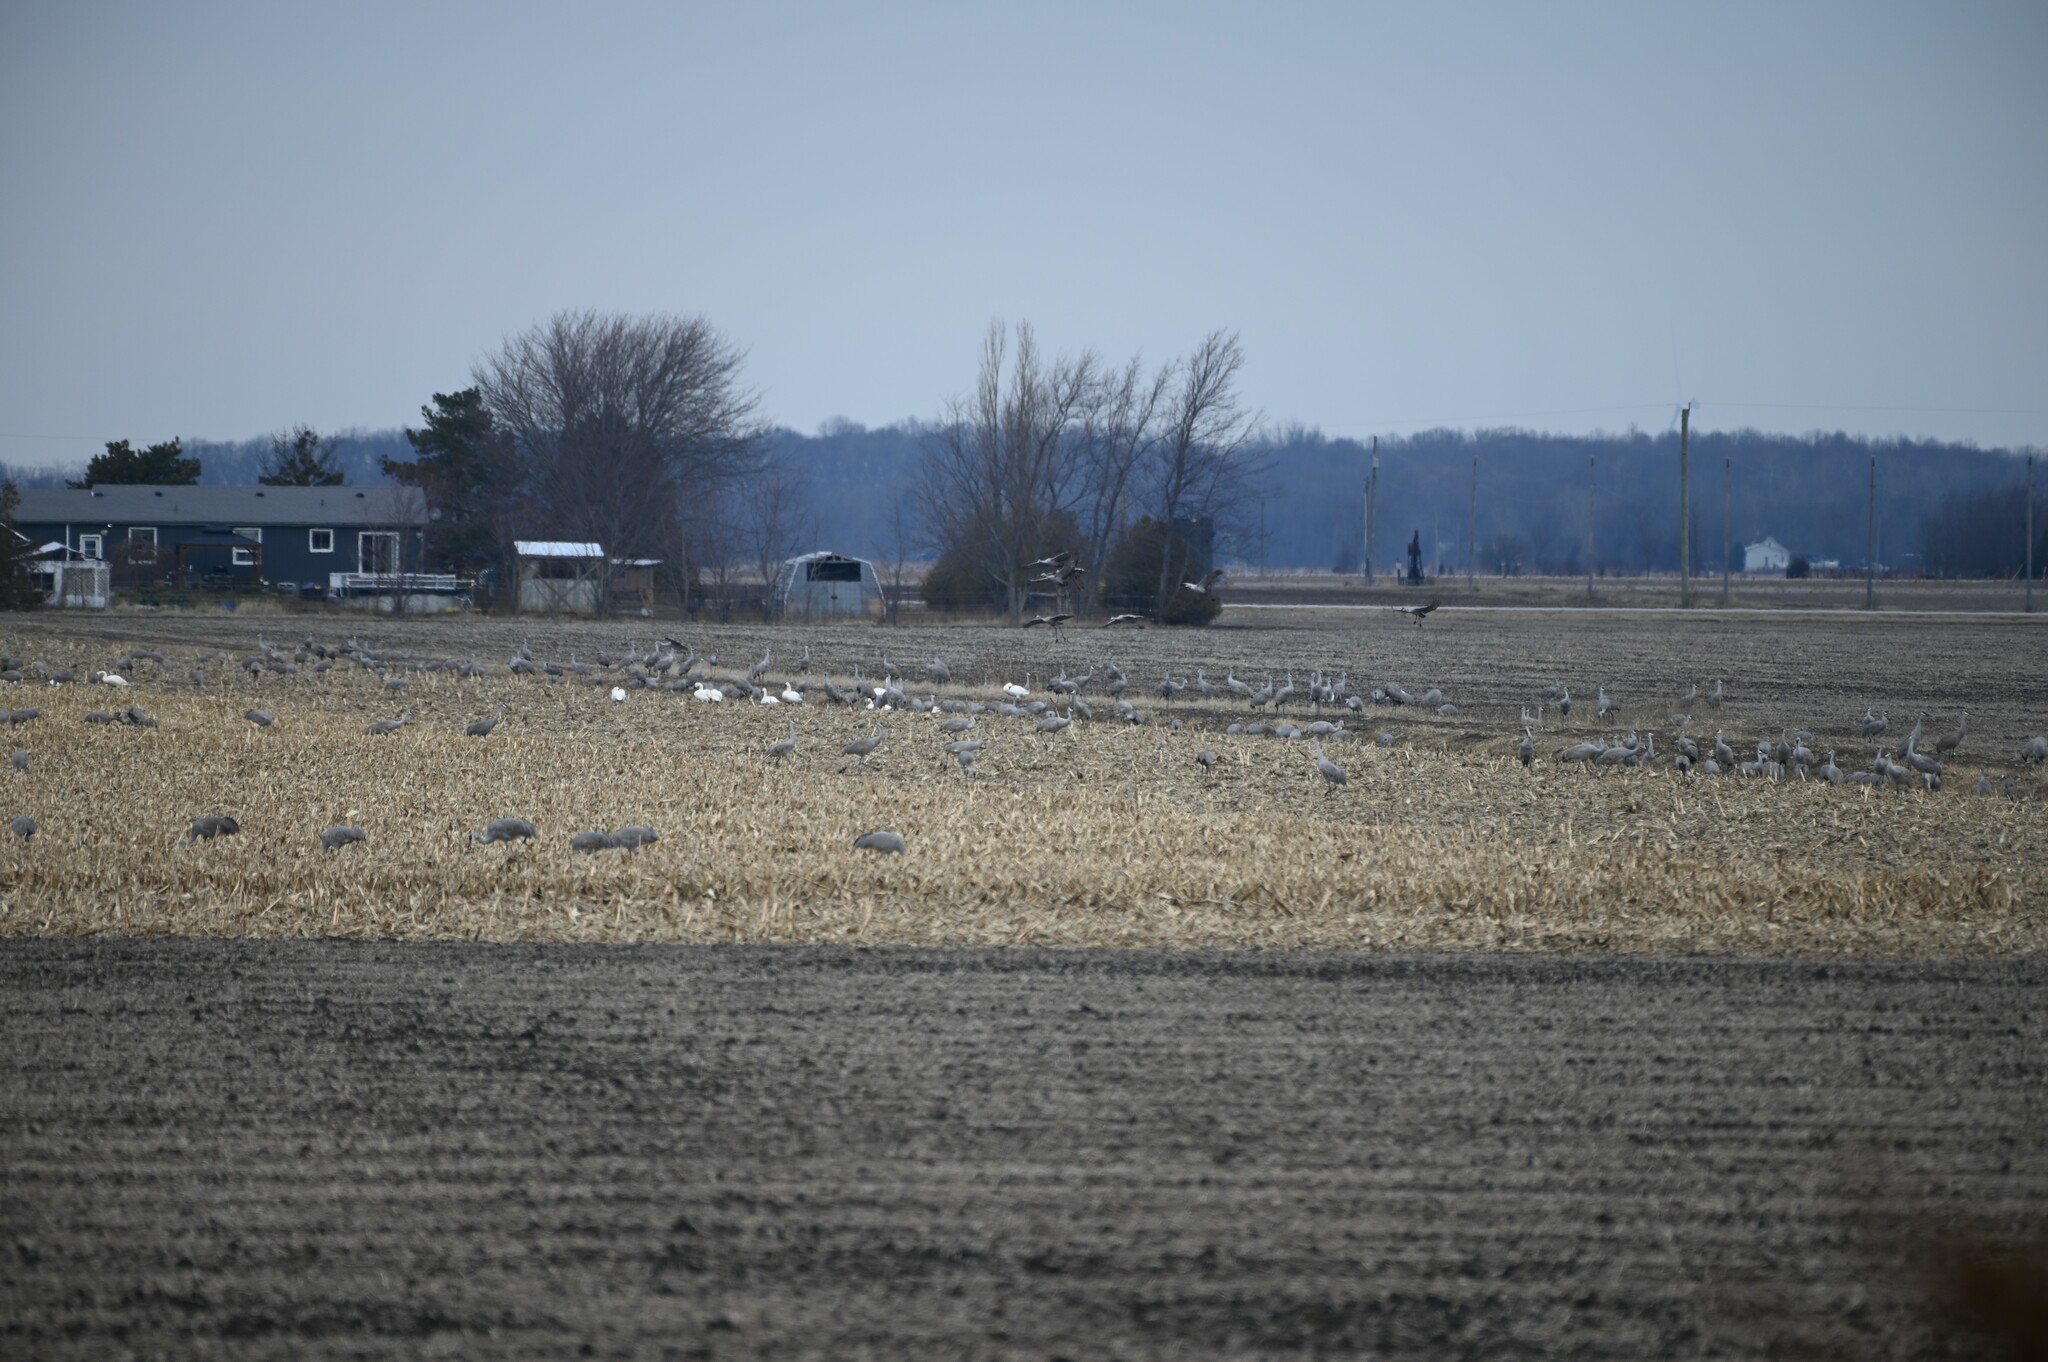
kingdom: Animalia
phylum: Chordata
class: Aves
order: Gruiformes
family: Gruidae
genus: Grus
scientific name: Grus canadensis
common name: Sandhill crane
